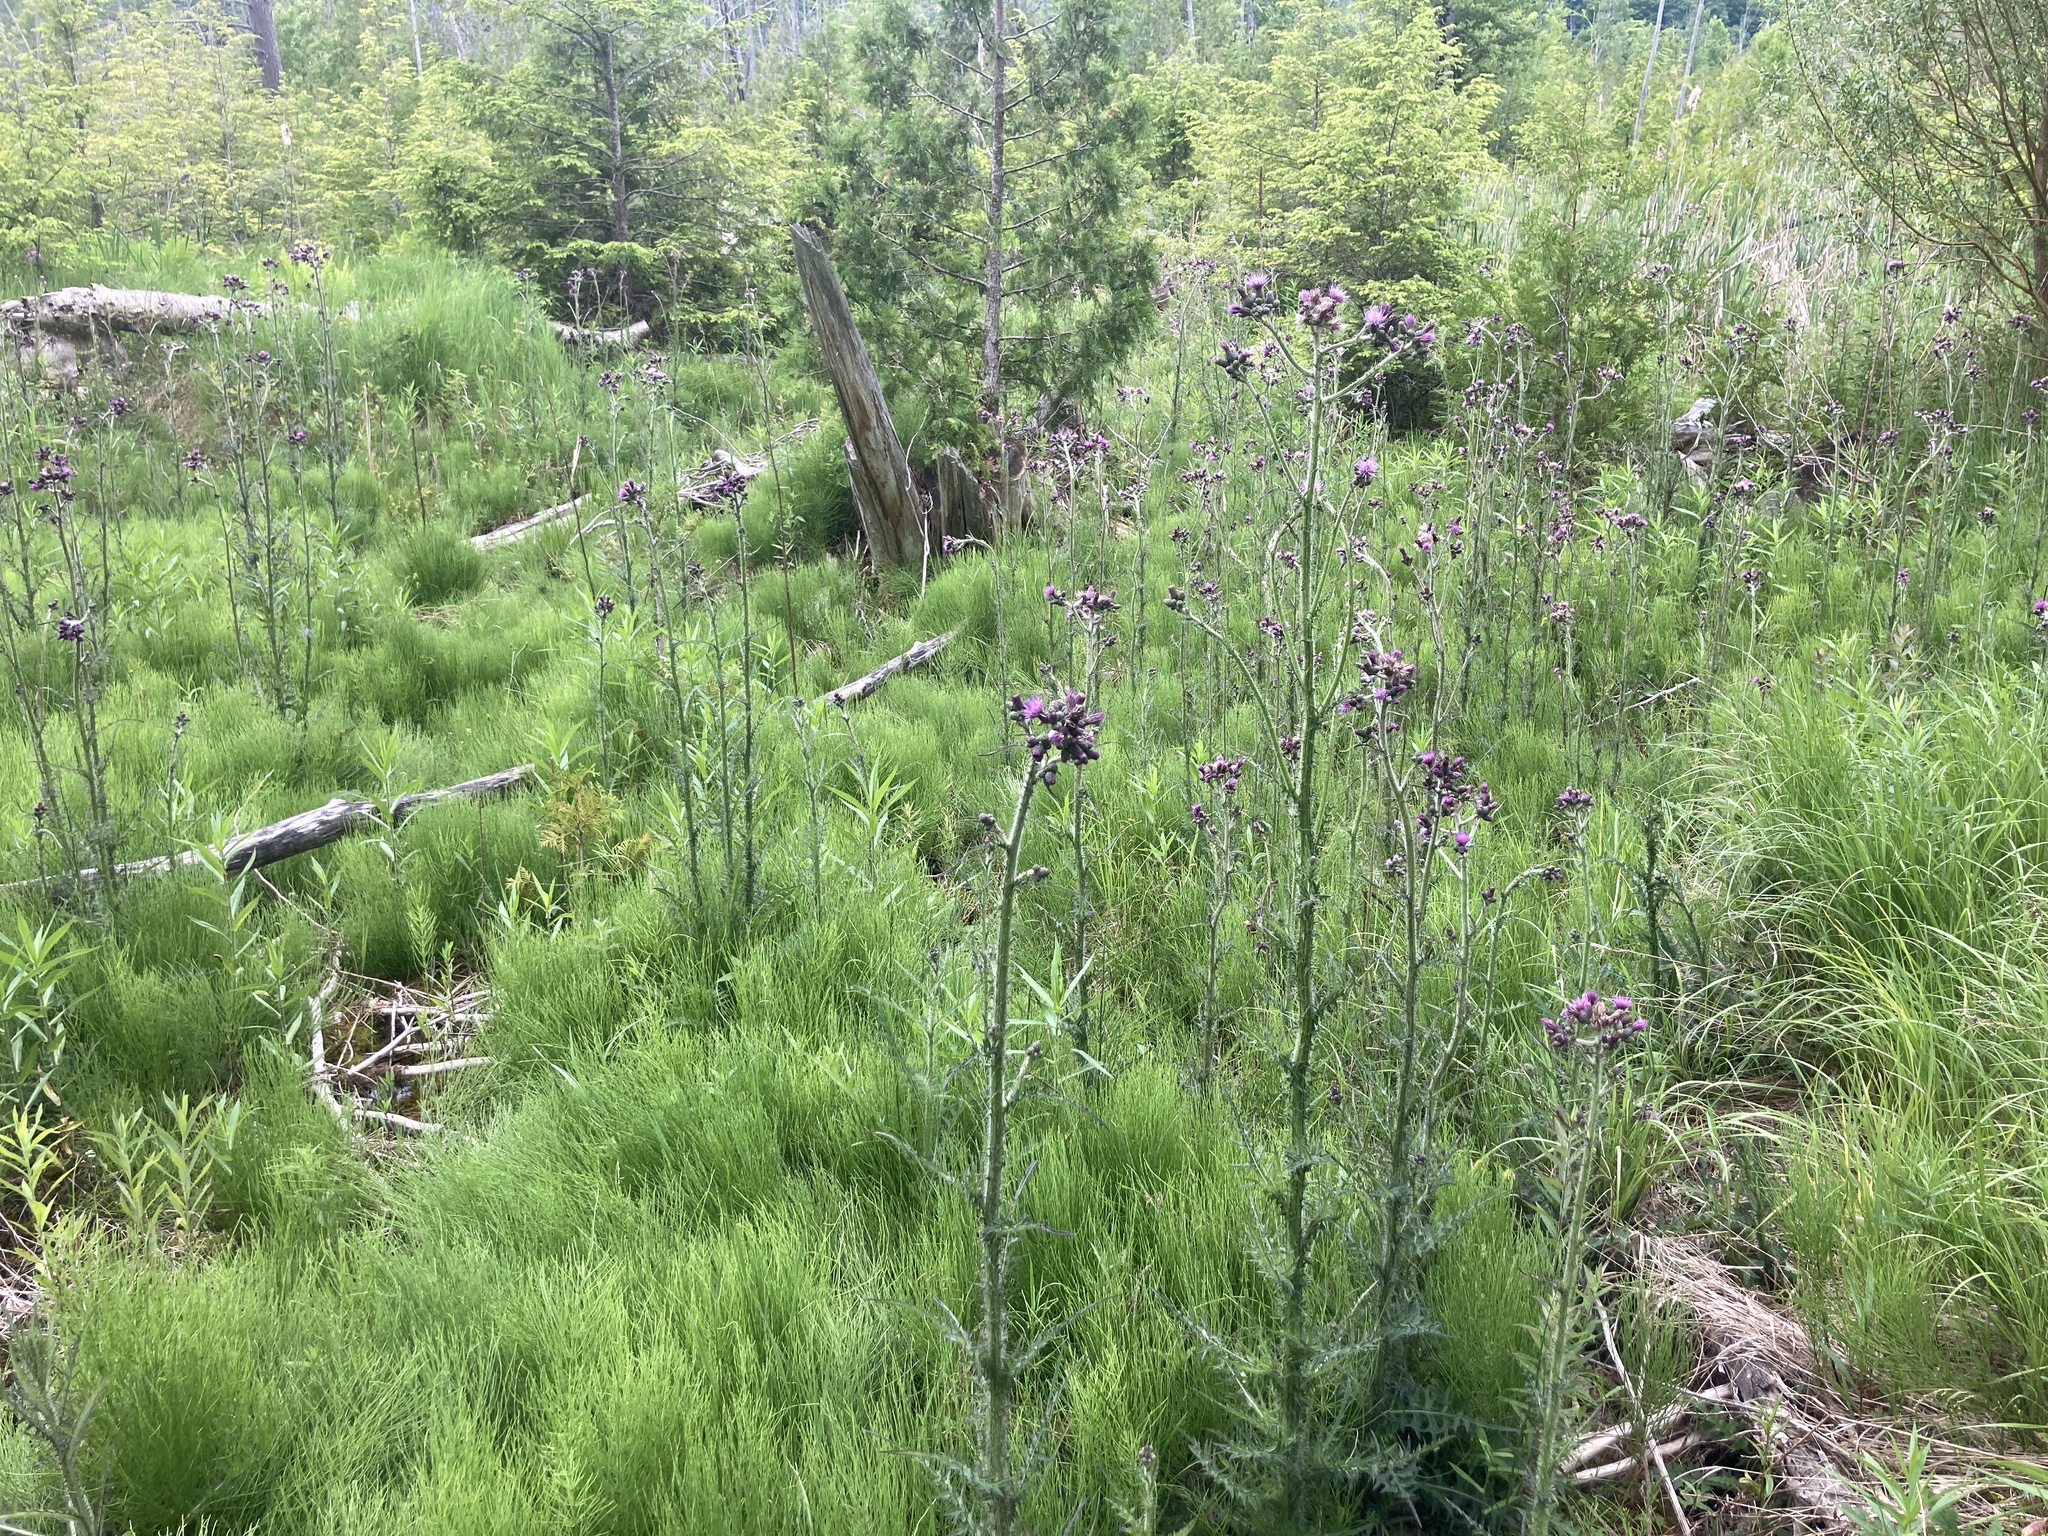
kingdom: Plantae
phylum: Tracheophyta
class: Magnoliopsida
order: Asterales
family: Asteraceae
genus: Cirsium
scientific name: Cirsium palustre
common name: Marsh thistle
